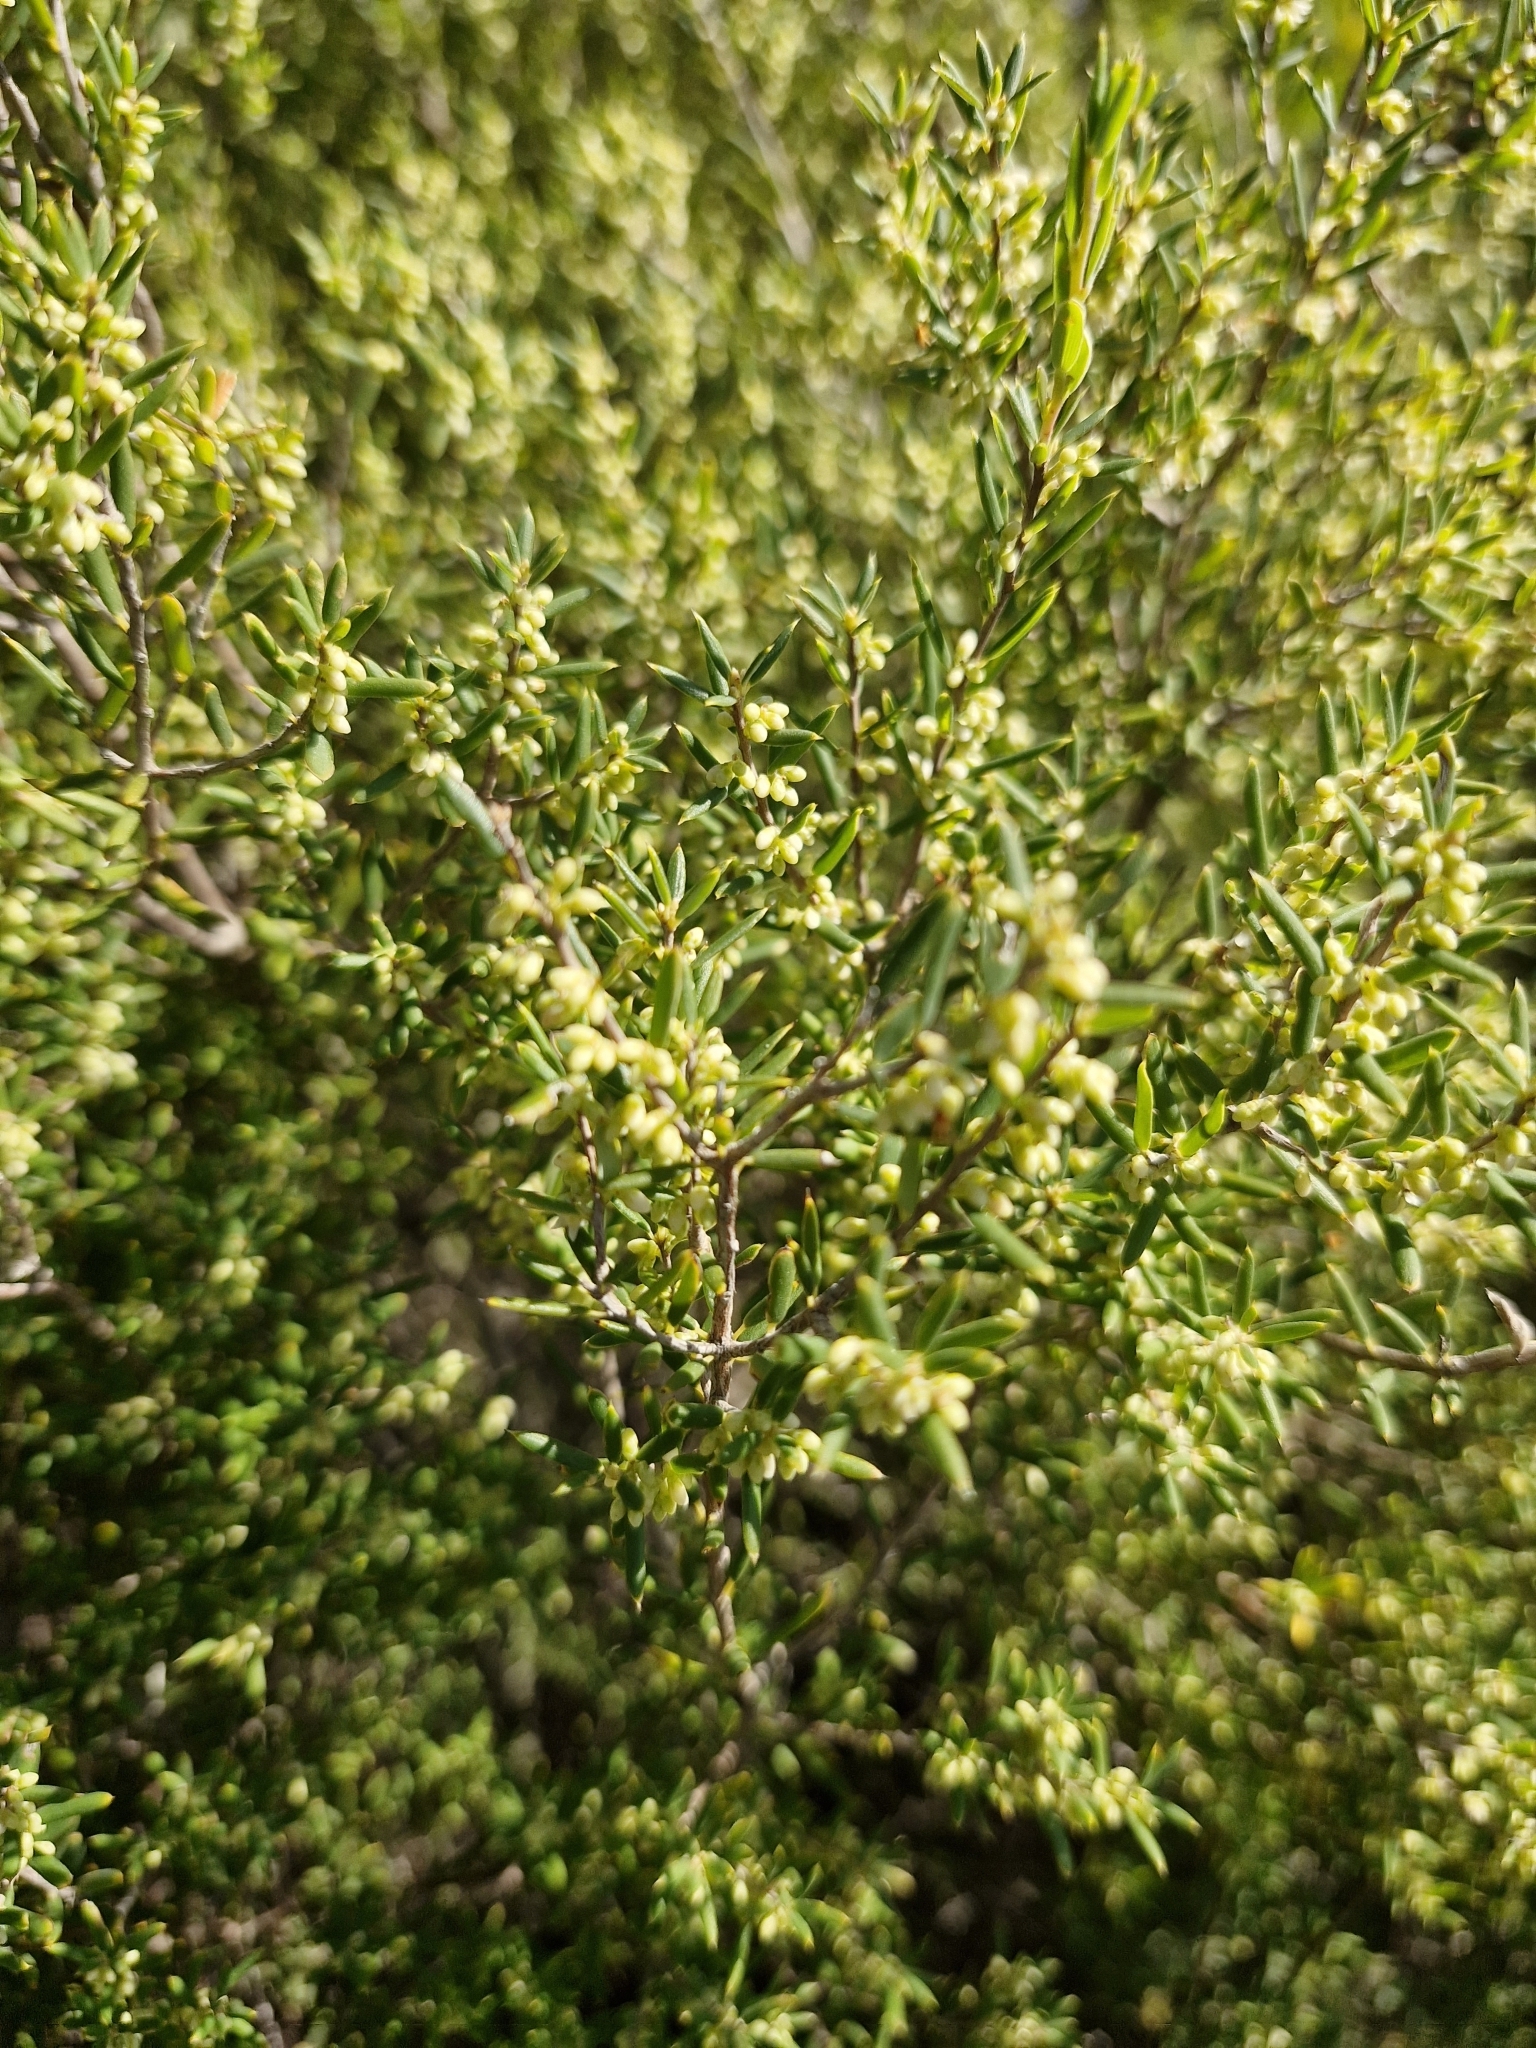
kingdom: Plantae
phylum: Tracheophyta
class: Magnoliopsida
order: Ericales
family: Ericaceae
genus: Monotoca
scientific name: Monotoca scoparia
